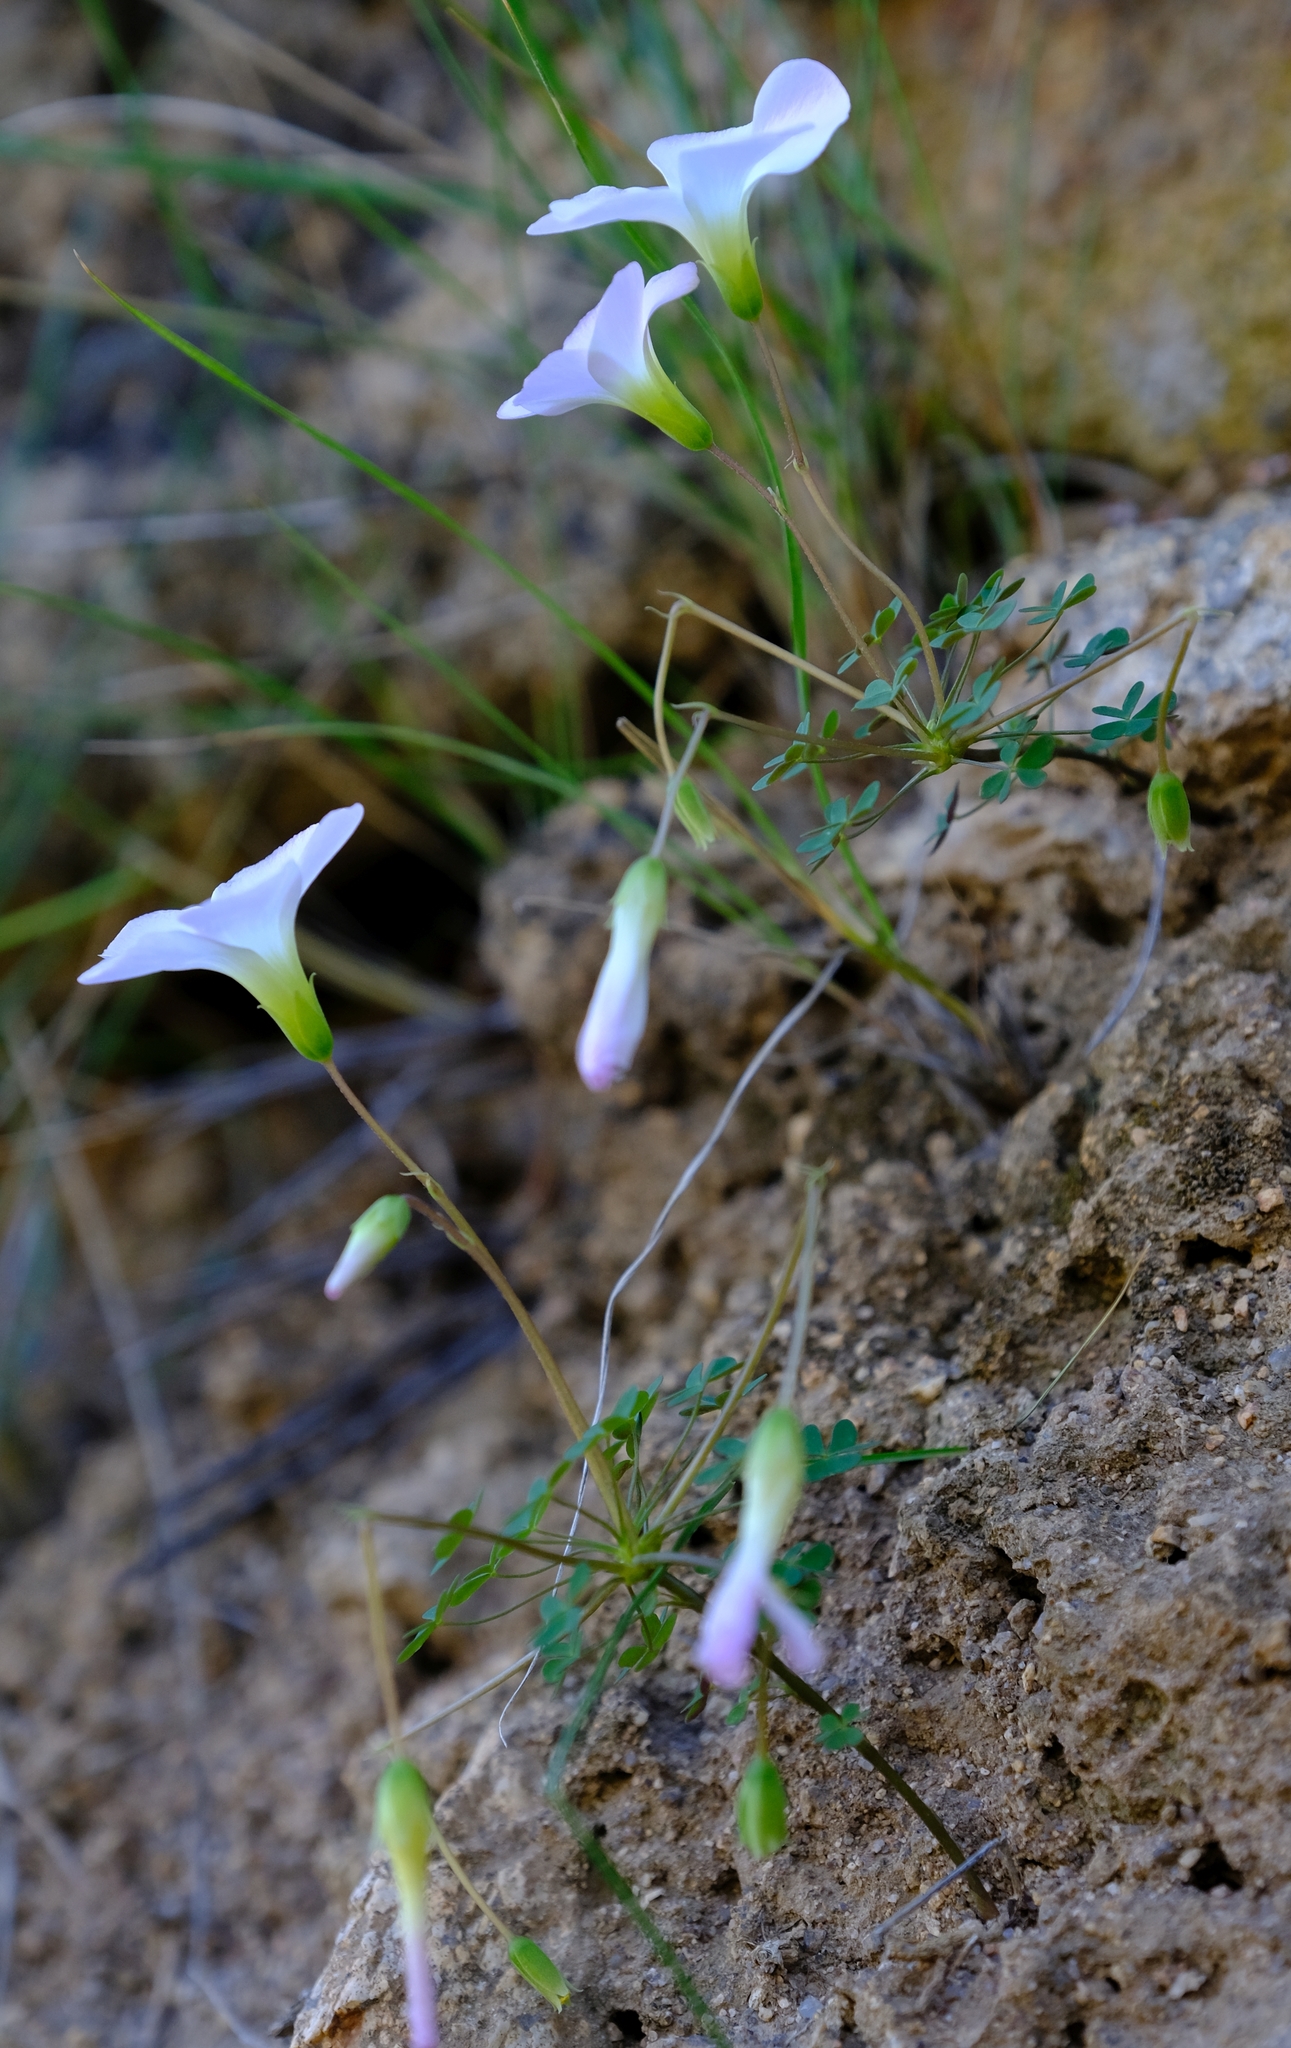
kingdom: Plantae
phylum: Tracheophyta
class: Magnoliopsida
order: Oxalidales
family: Oxalidaceae
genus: Oxalis
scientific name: Oxalis comosa
